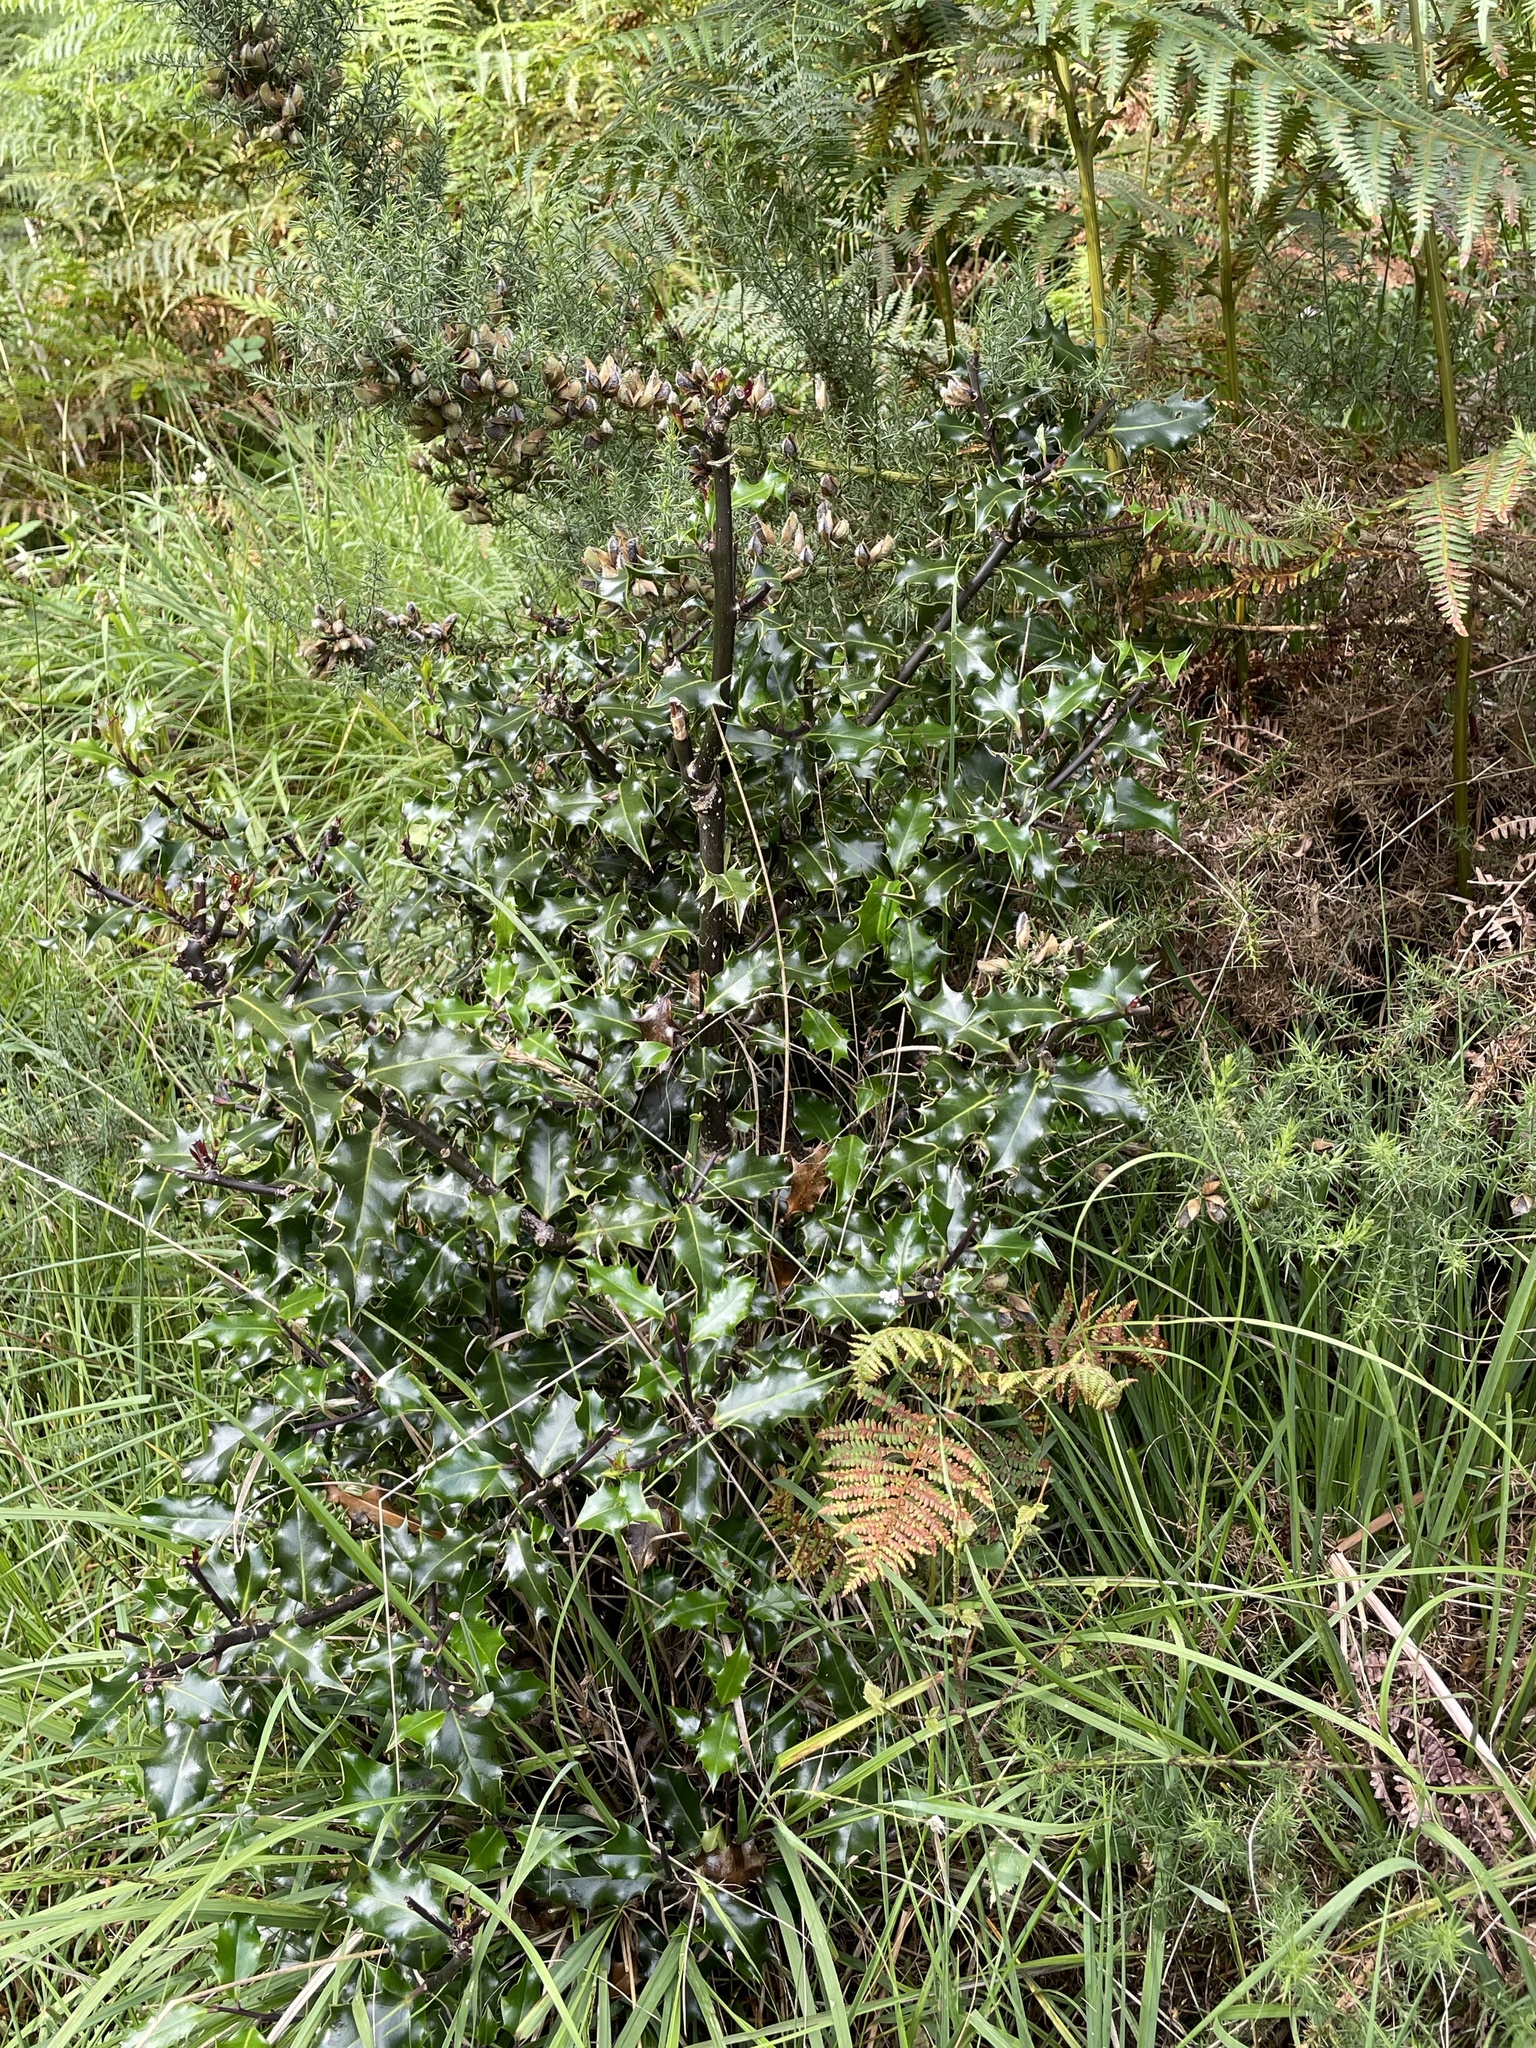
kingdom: Plantae
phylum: Tracheophyta
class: Magnoliopsida
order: Aquifoliales
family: Aquifoliaceae
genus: Ilex
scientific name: Ilex aquifolium
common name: English holly
